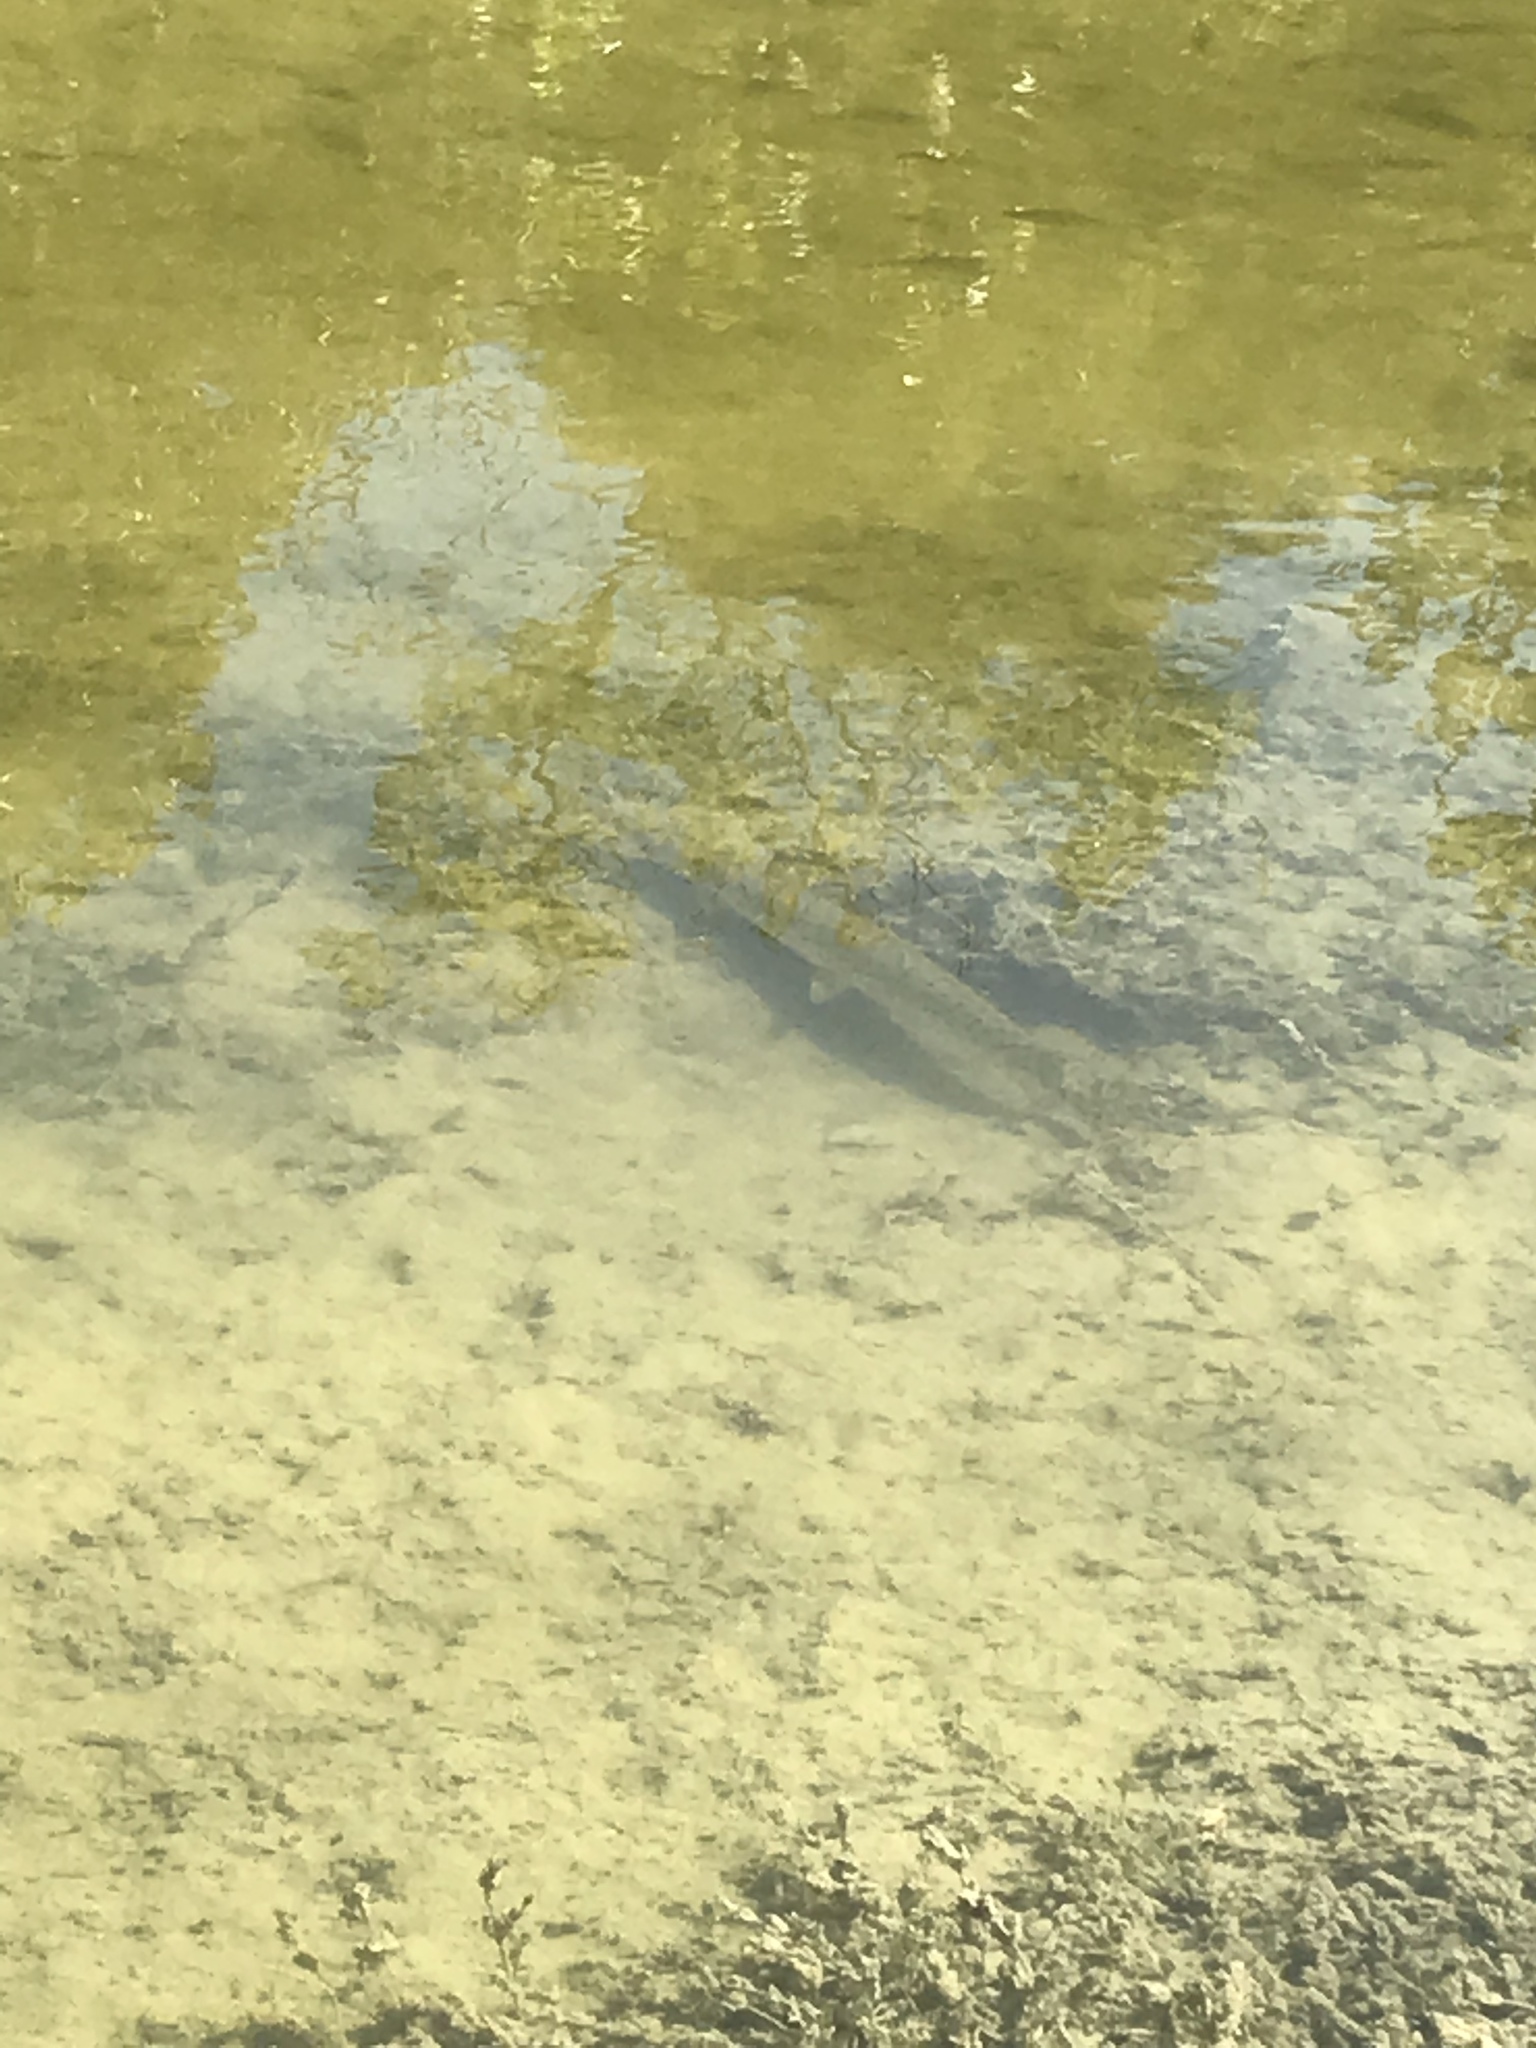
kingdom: Animalia
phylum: Chordata
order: Lepisosteiformes
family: Lepisosteidae
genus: Lepisosteus
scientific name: Lepisosteus osseus
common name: Longnose gar
